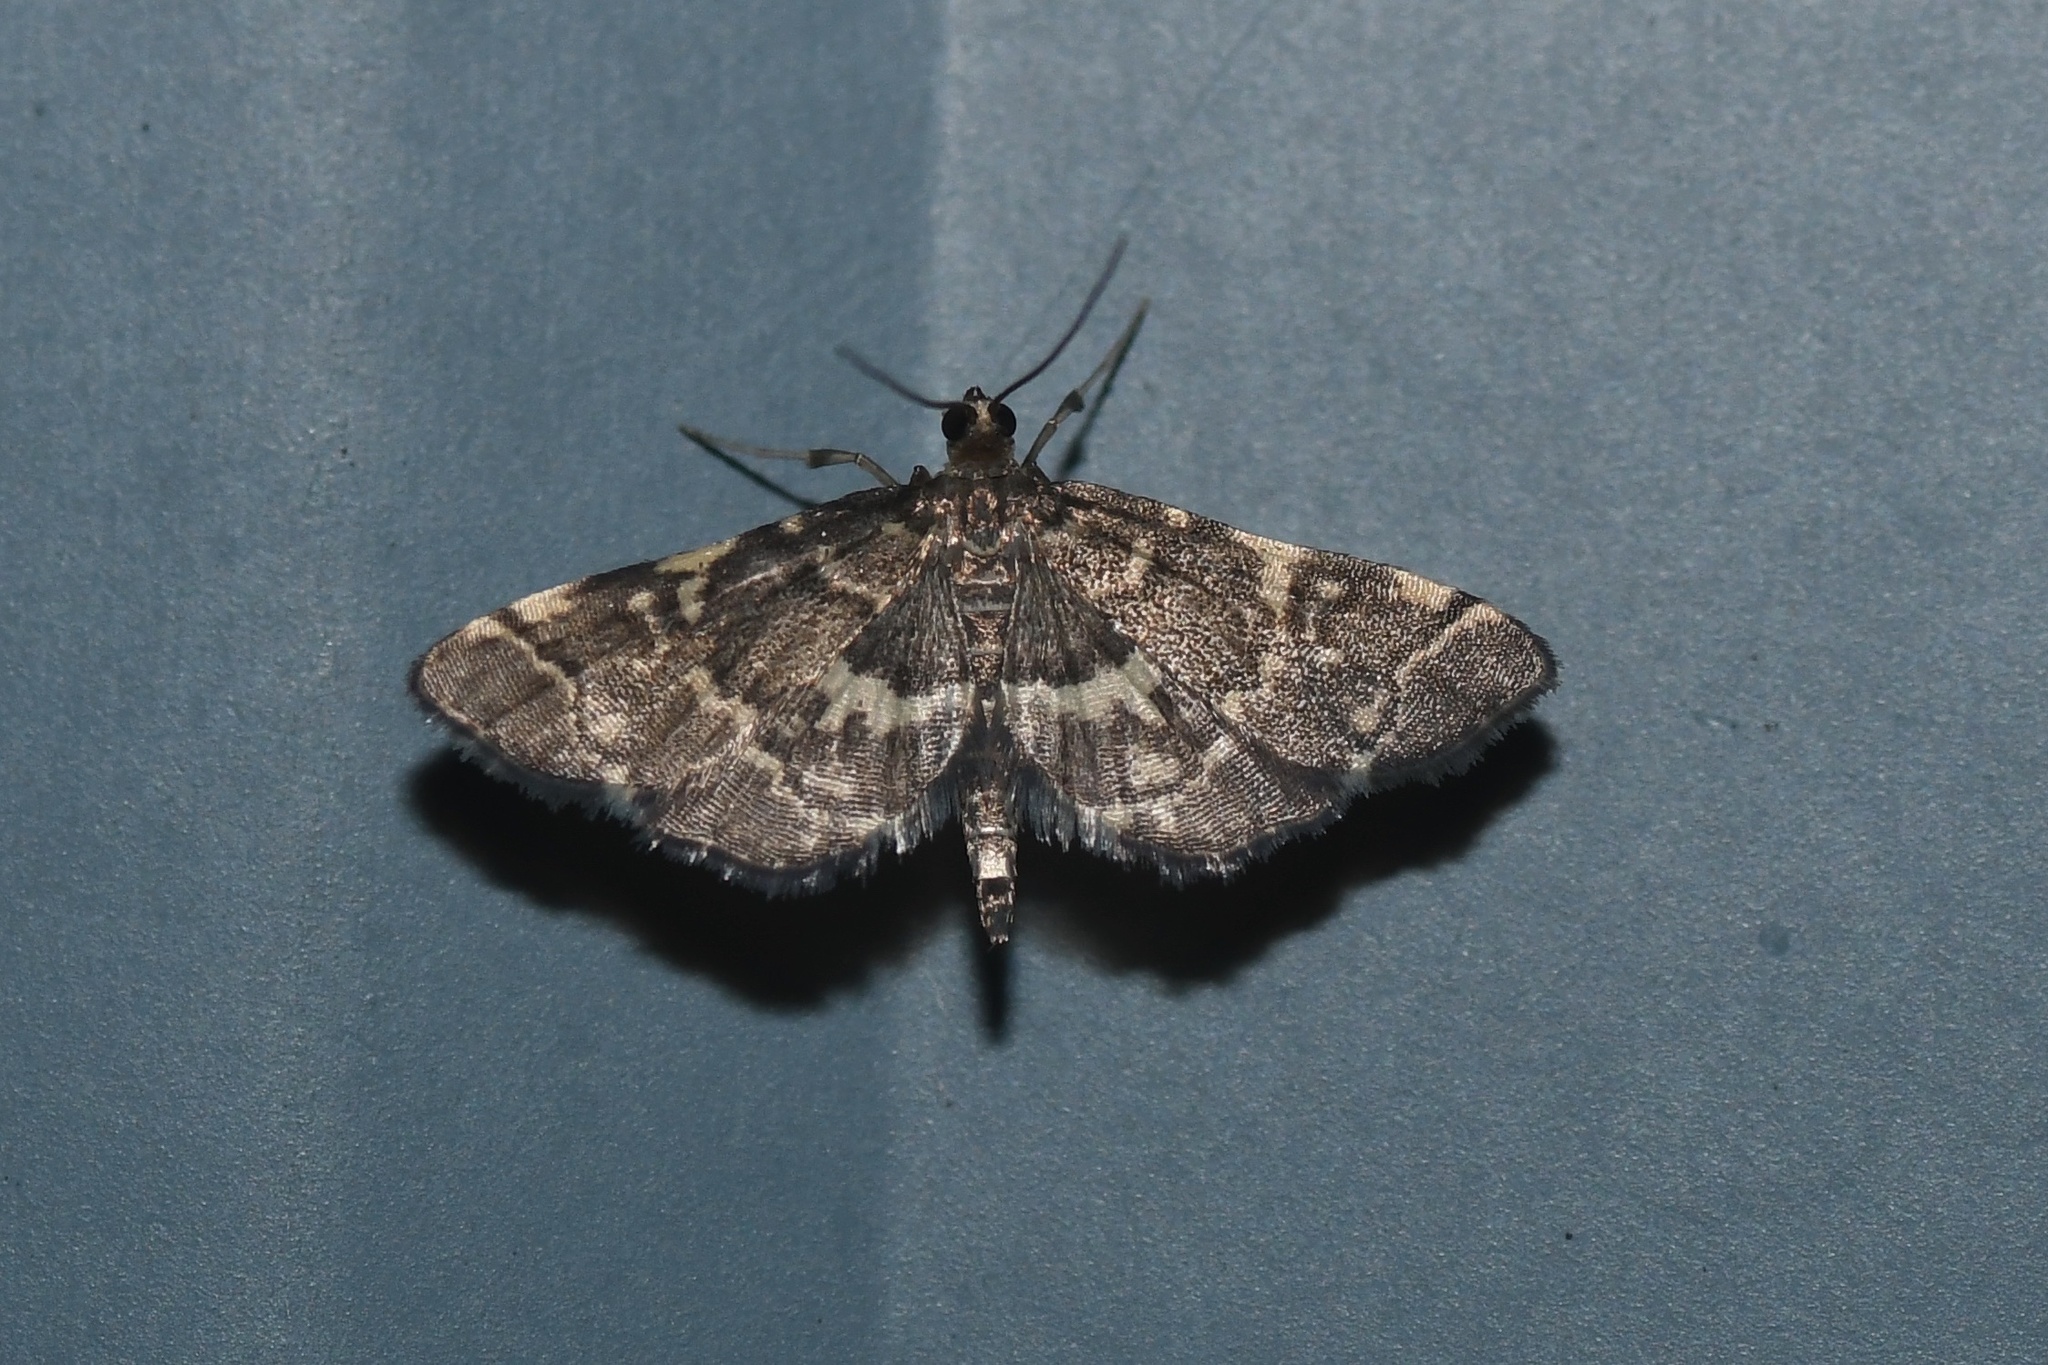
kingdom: Animalia
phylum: Arthropoda
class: Insecta
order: Lepidoptera
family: Crambidae
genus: Anageshna
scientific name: Anageshna primordialis
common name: Yellow-spotted webworm moth
